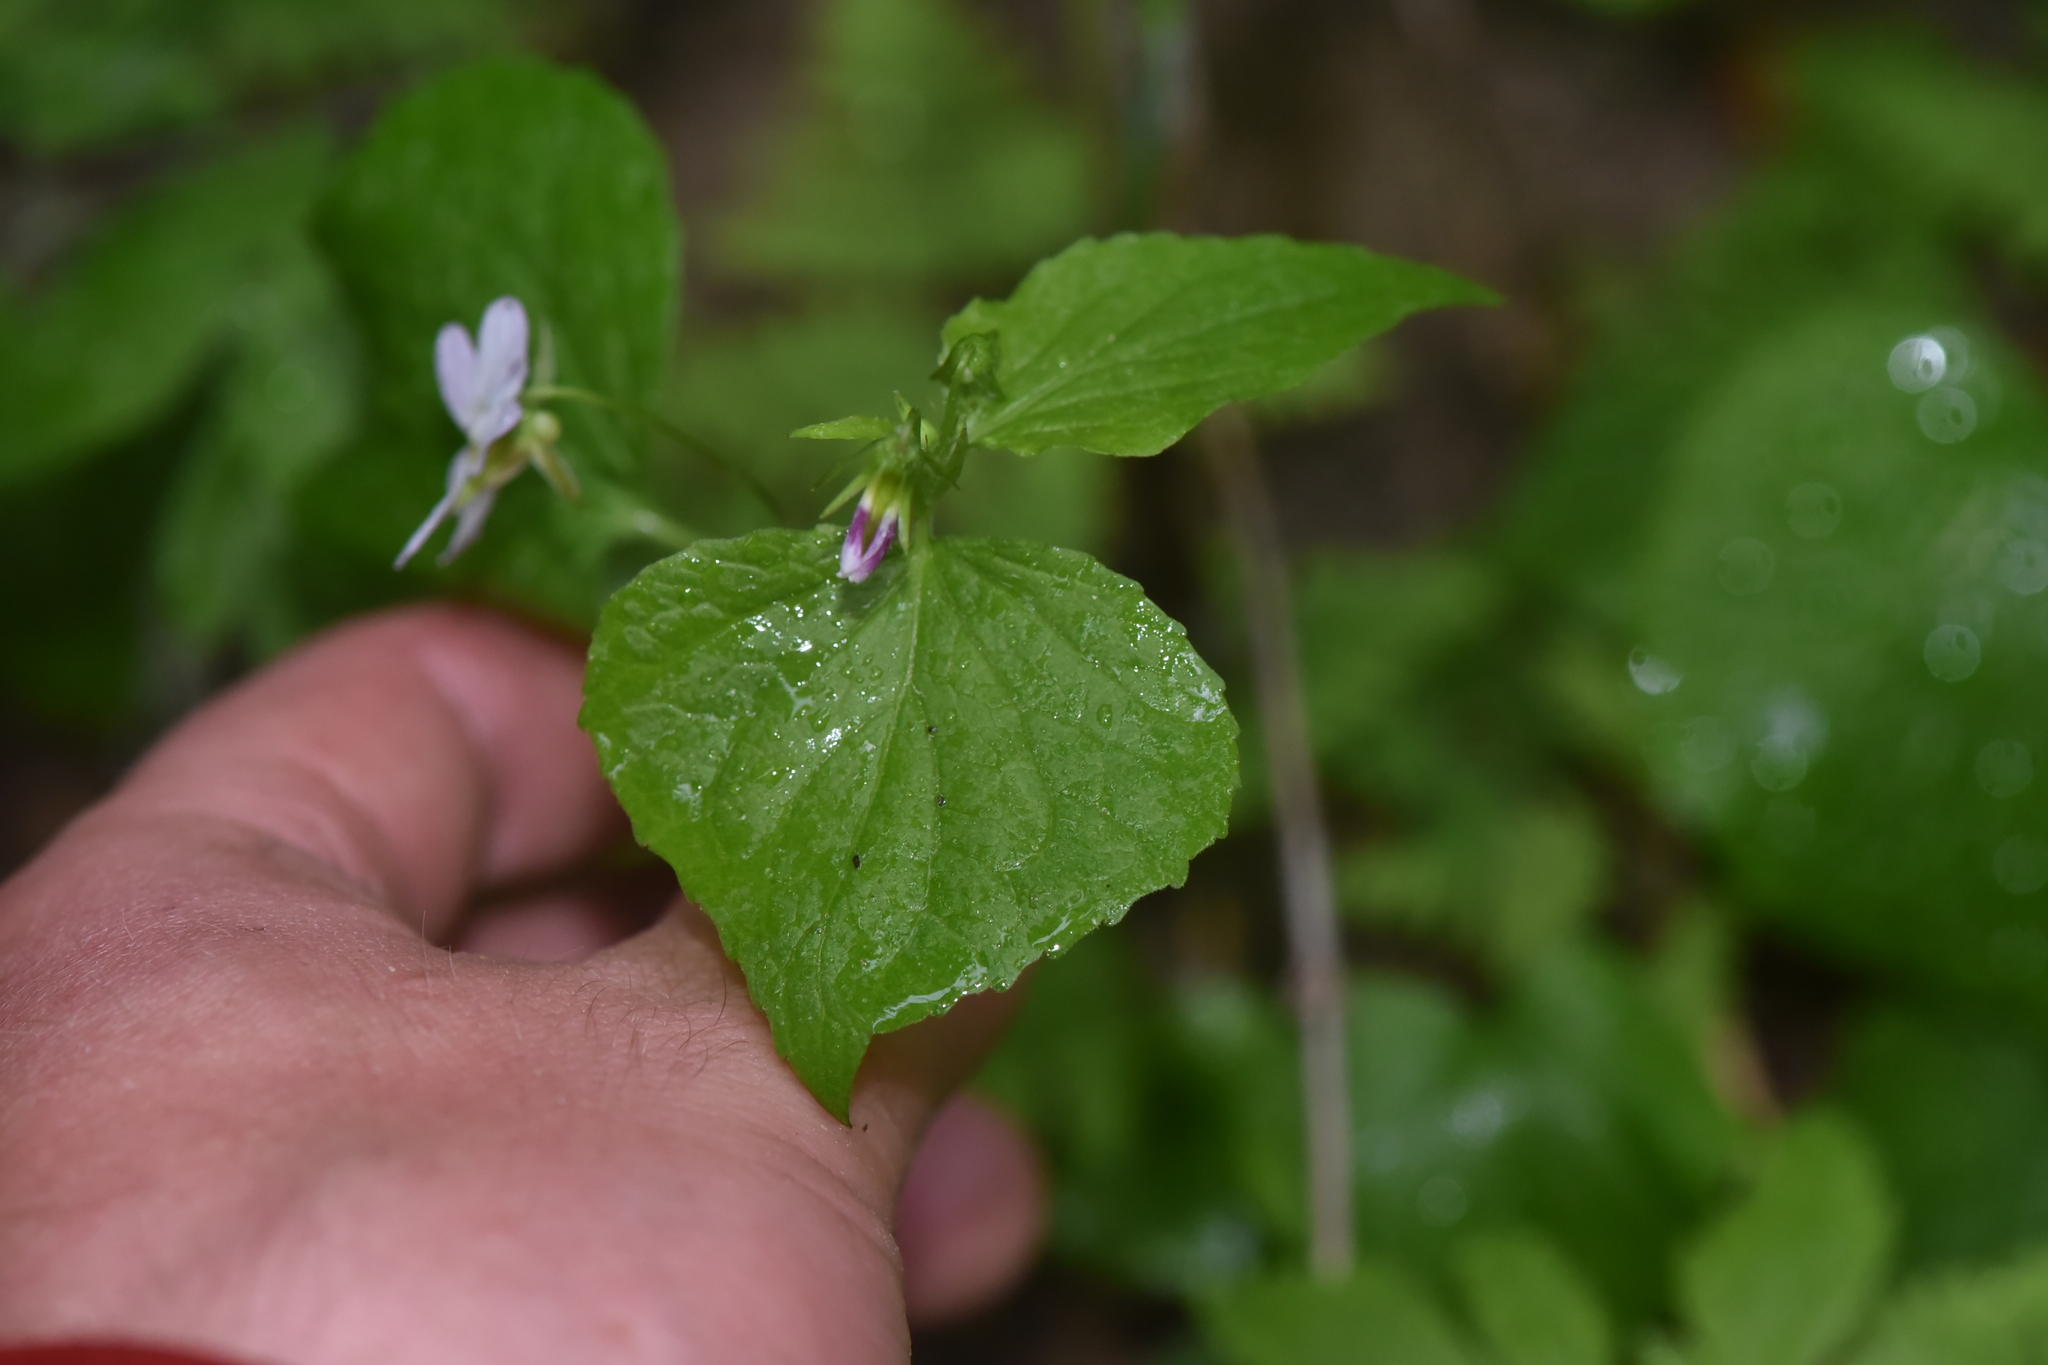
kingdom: Plantae
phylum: Tracheophyta
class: Magnoliopsida
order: Malpighiales
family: Violaceae
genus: Viola
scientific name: Viola canadensis
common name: Canada violet
